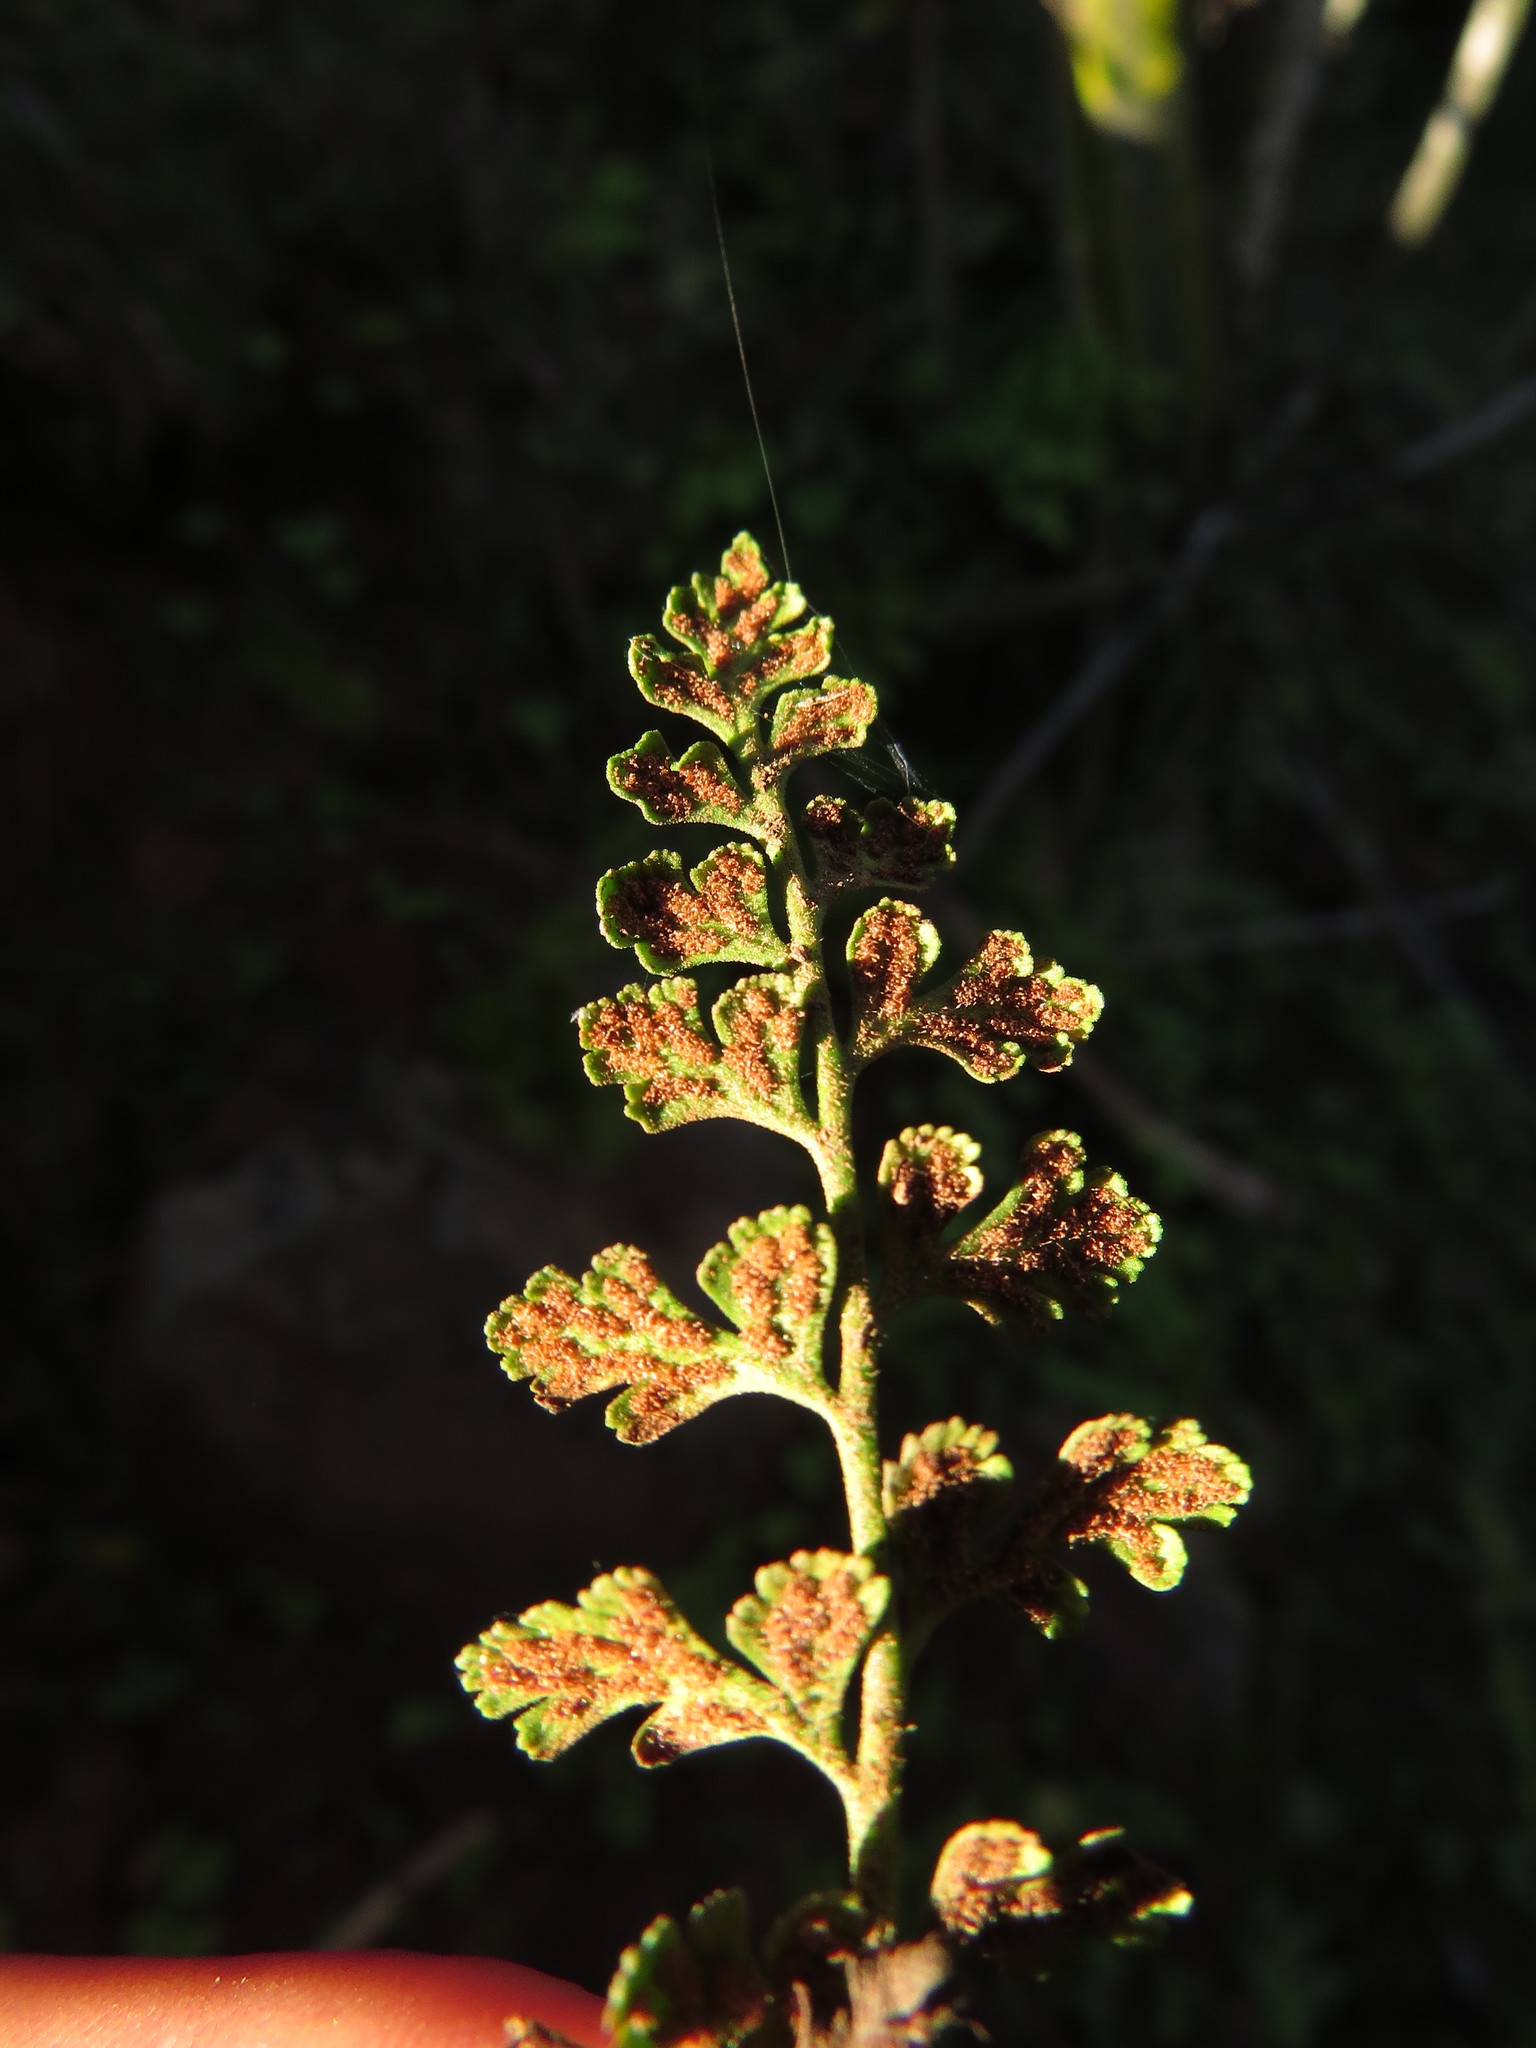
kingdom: Plantae
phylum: Tracheophyta
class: Polypodiopsida
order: Polypodiales
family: Aspleniaceae
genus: Asplenium
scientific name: Asplenium papaverifolium
